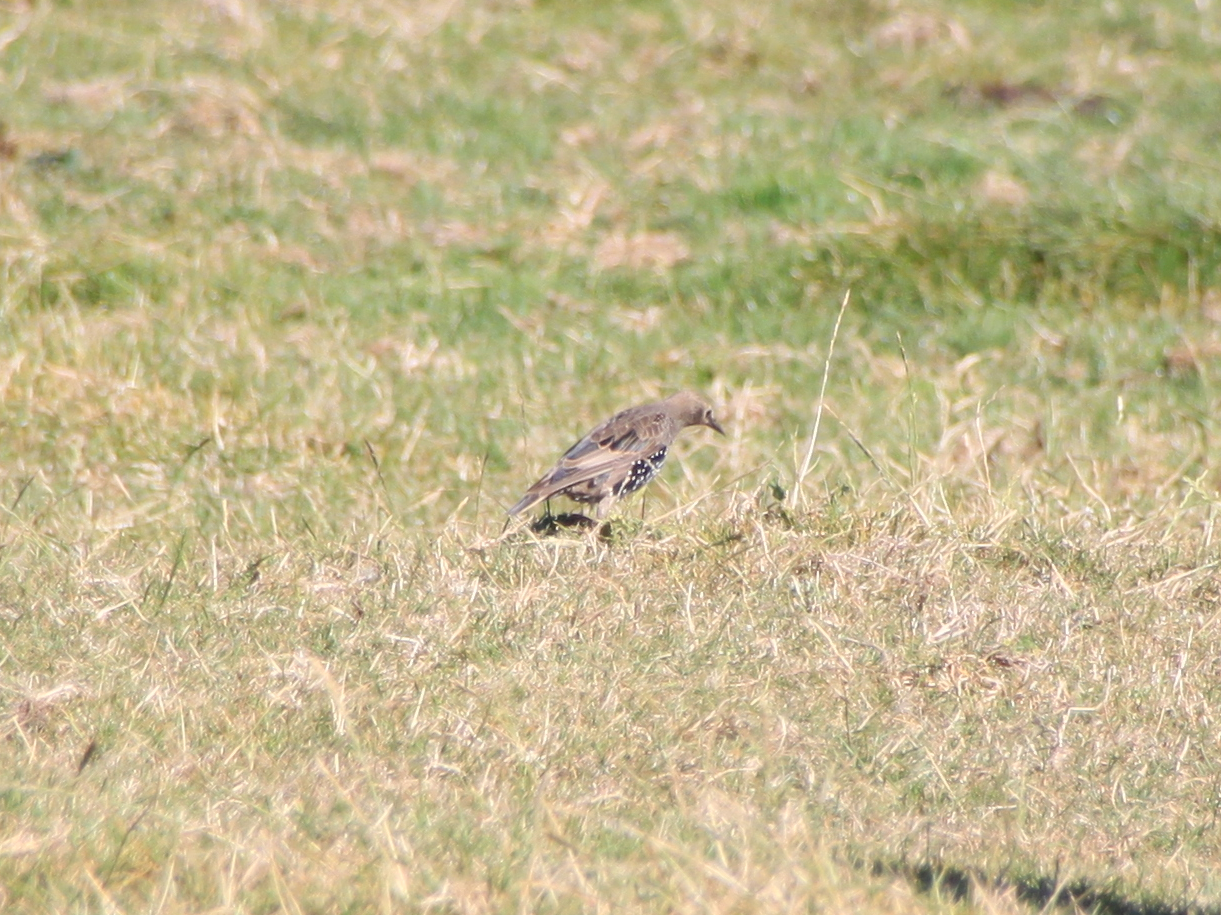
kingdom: Animalia
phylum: Chordata
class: Aves
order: Passeriformes
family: Sturnidae
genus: Sturnus
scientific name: Sturnus vulgaris
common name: Common starling
